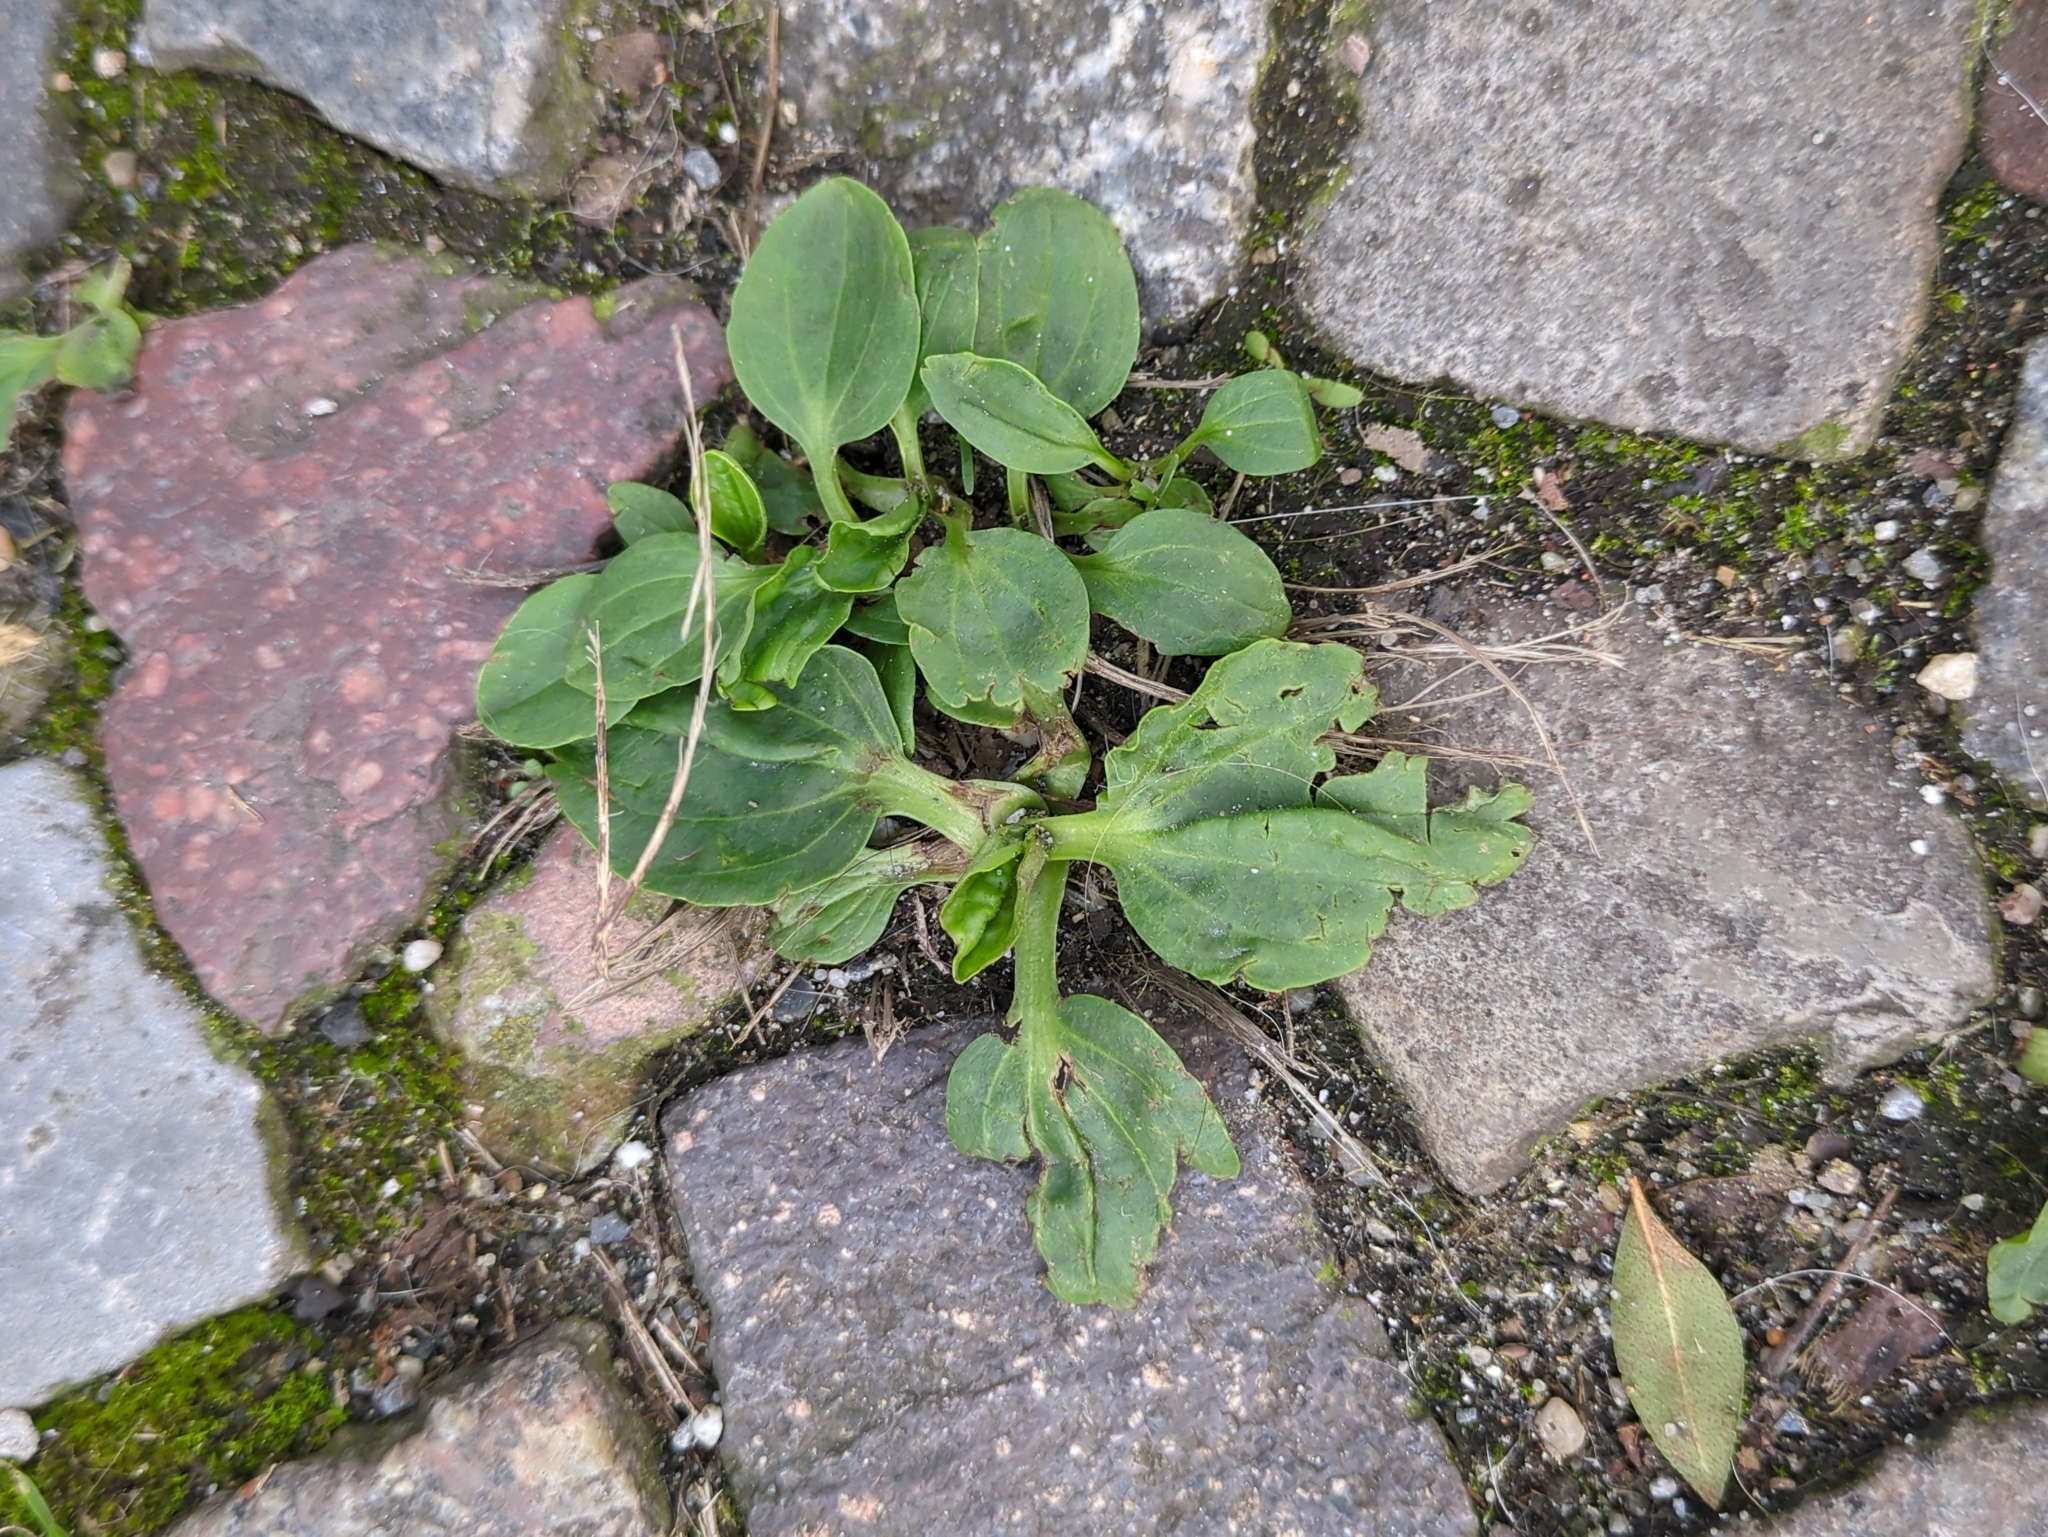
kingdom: Plantae
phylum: Tracheophyta
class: Magnoliopsida
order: Lamiales
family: Plantaginaceae
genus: Plantago
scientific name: Plantago major
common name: Common plantain
